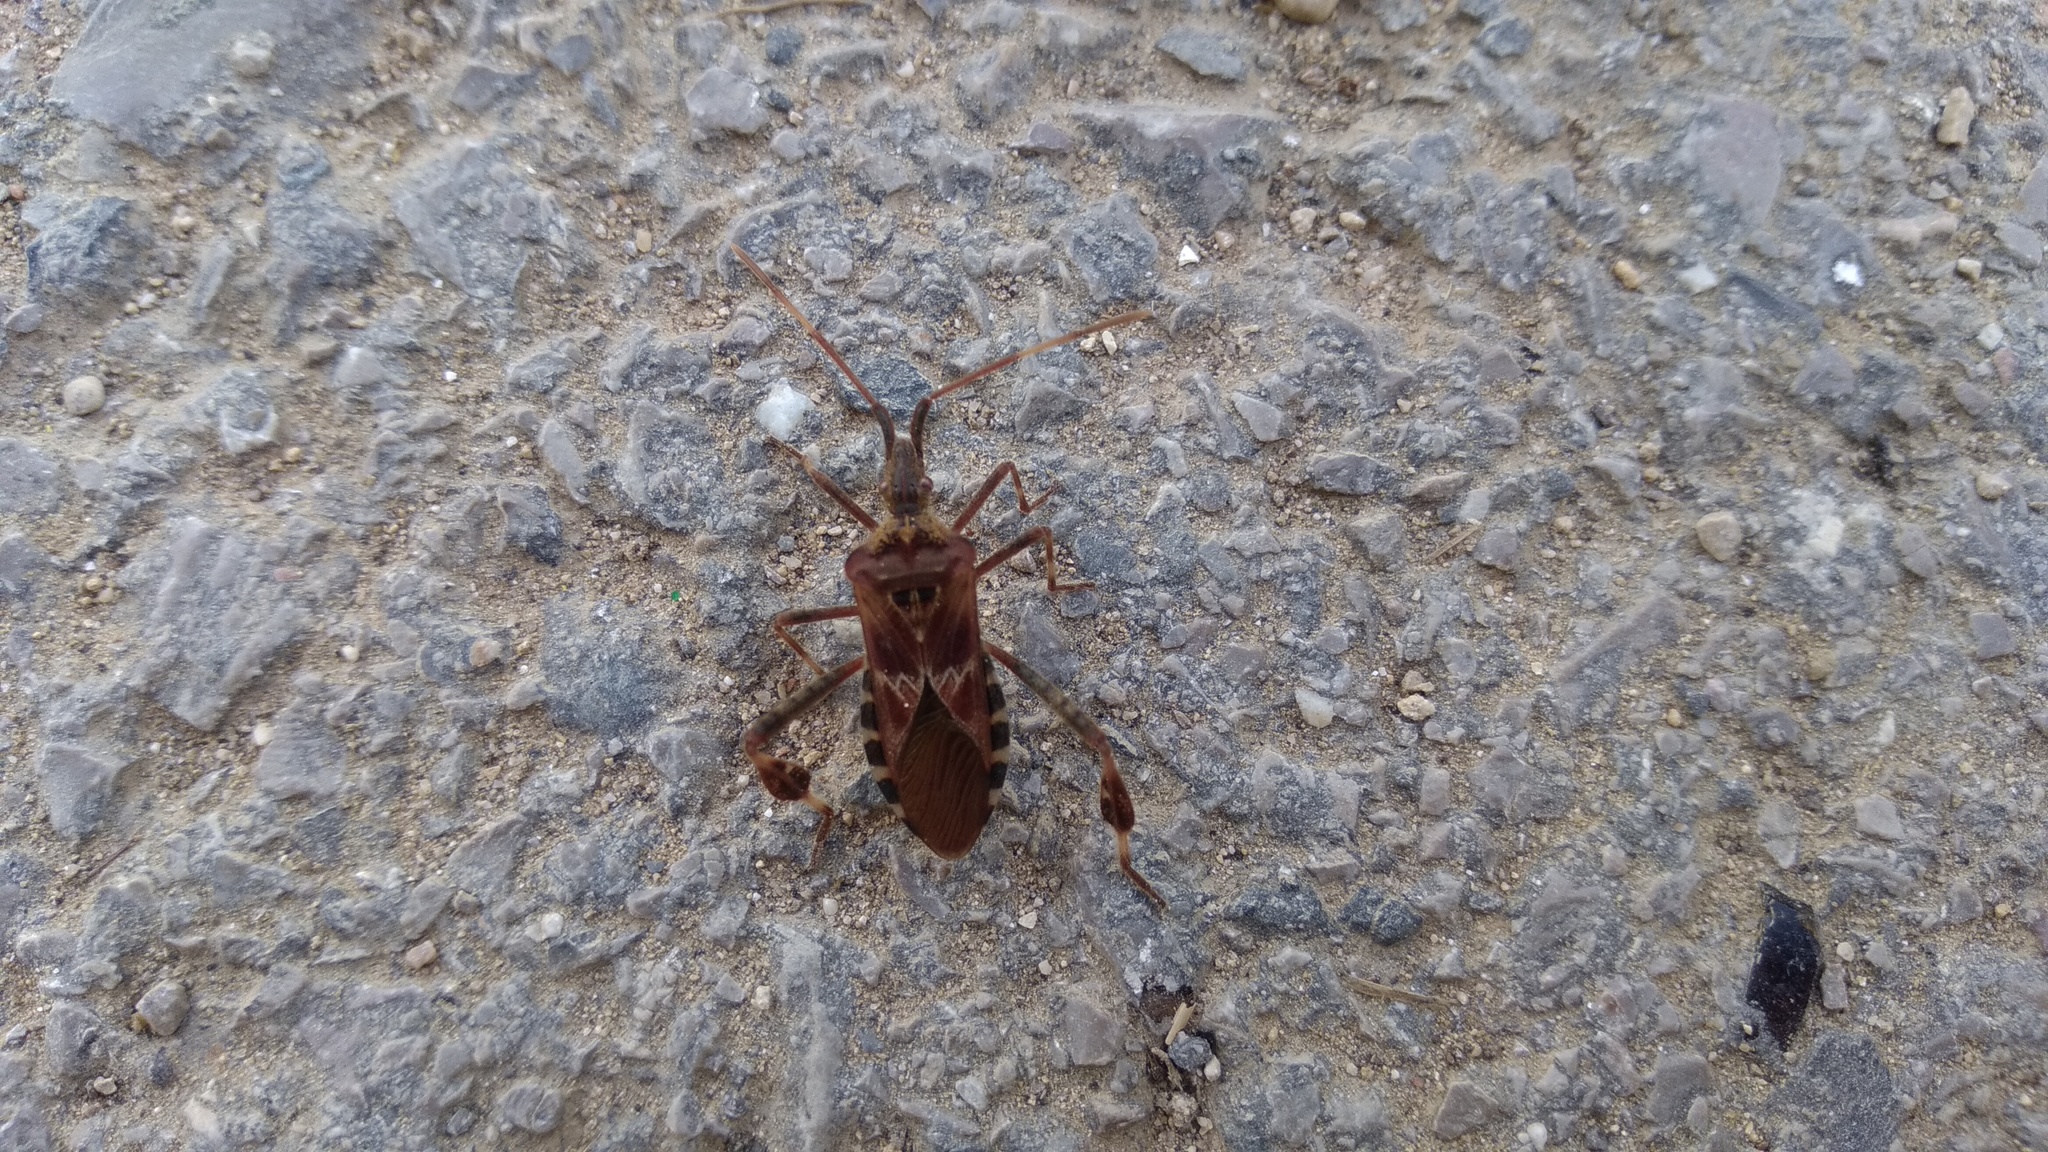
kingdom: Animalia
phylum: Arthropoda
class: Insecta
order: Hemiptera
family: Coreidae
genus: Leptoglossus
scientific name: Leptoglossus occidentalis
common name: Western conifer-seed bug
